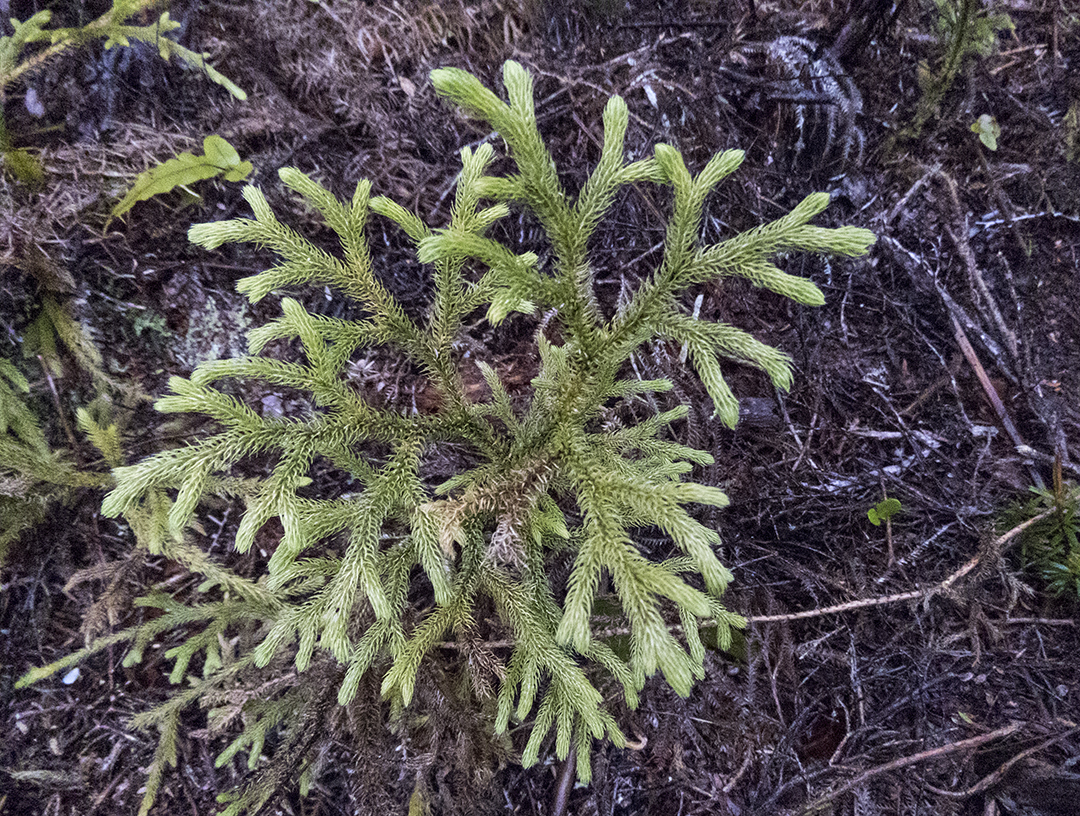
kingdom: Plantae
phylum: Tracheophyta
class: Lycopodiopsida
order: Lycopodiales
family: Lycopodiaceae
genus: Palhinhaea
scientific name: Palhinhaea cernua
